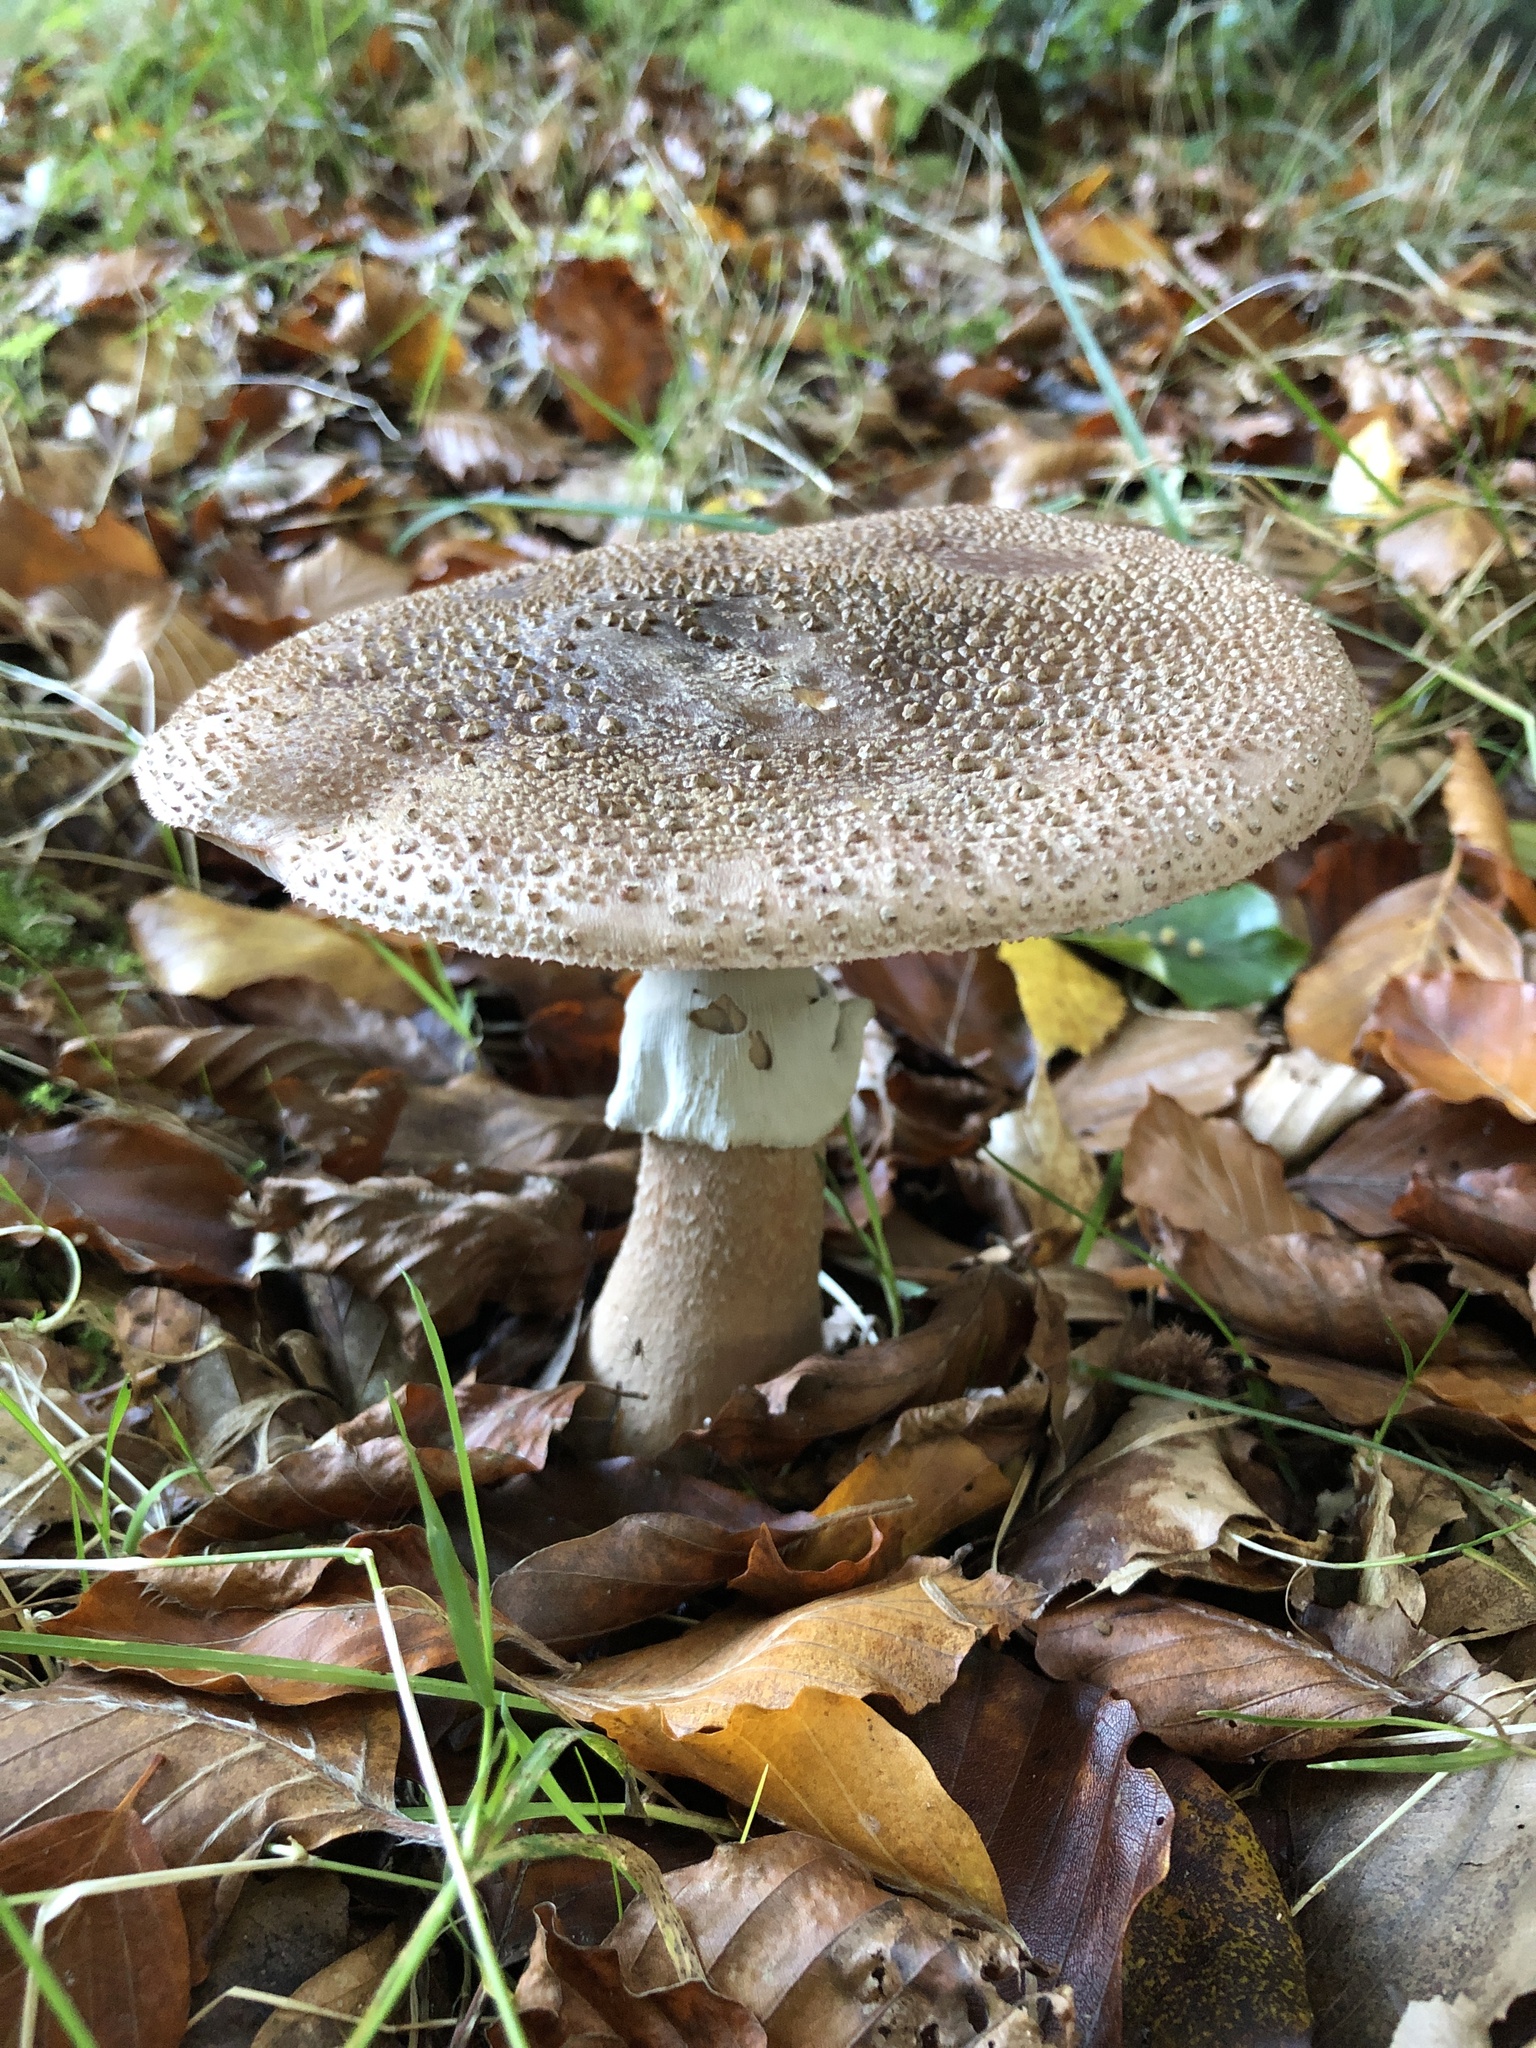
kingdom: Fungi
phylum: Basidiomycota
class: Agaricomycetes
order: Agaricales
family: Amanitaceae
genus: Amanita
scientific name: Amanita rubescens
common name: Blusher
